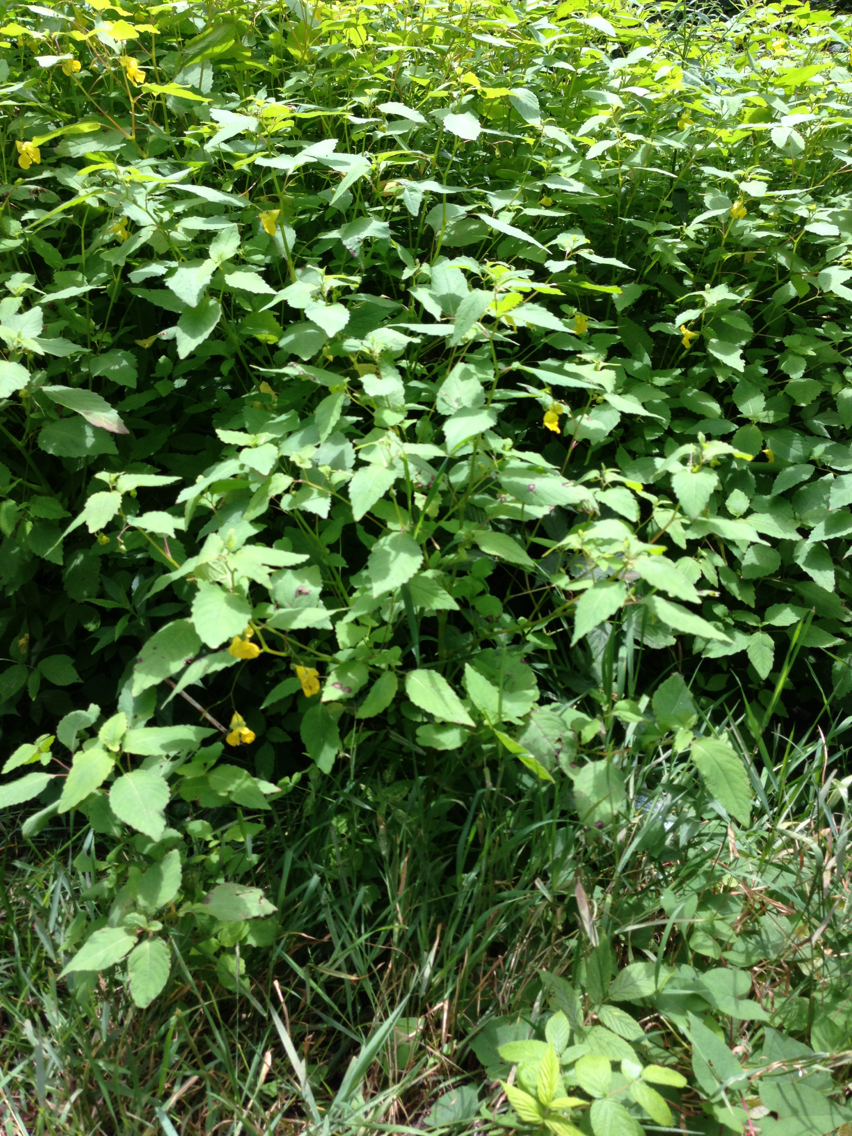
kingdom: Plantae
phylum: Tracheophyta
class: Magnoliopsida
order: Ericales
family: Balsaminaceae
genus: Impatiens
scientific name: Impatiens pallida
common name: Pale snapweed
